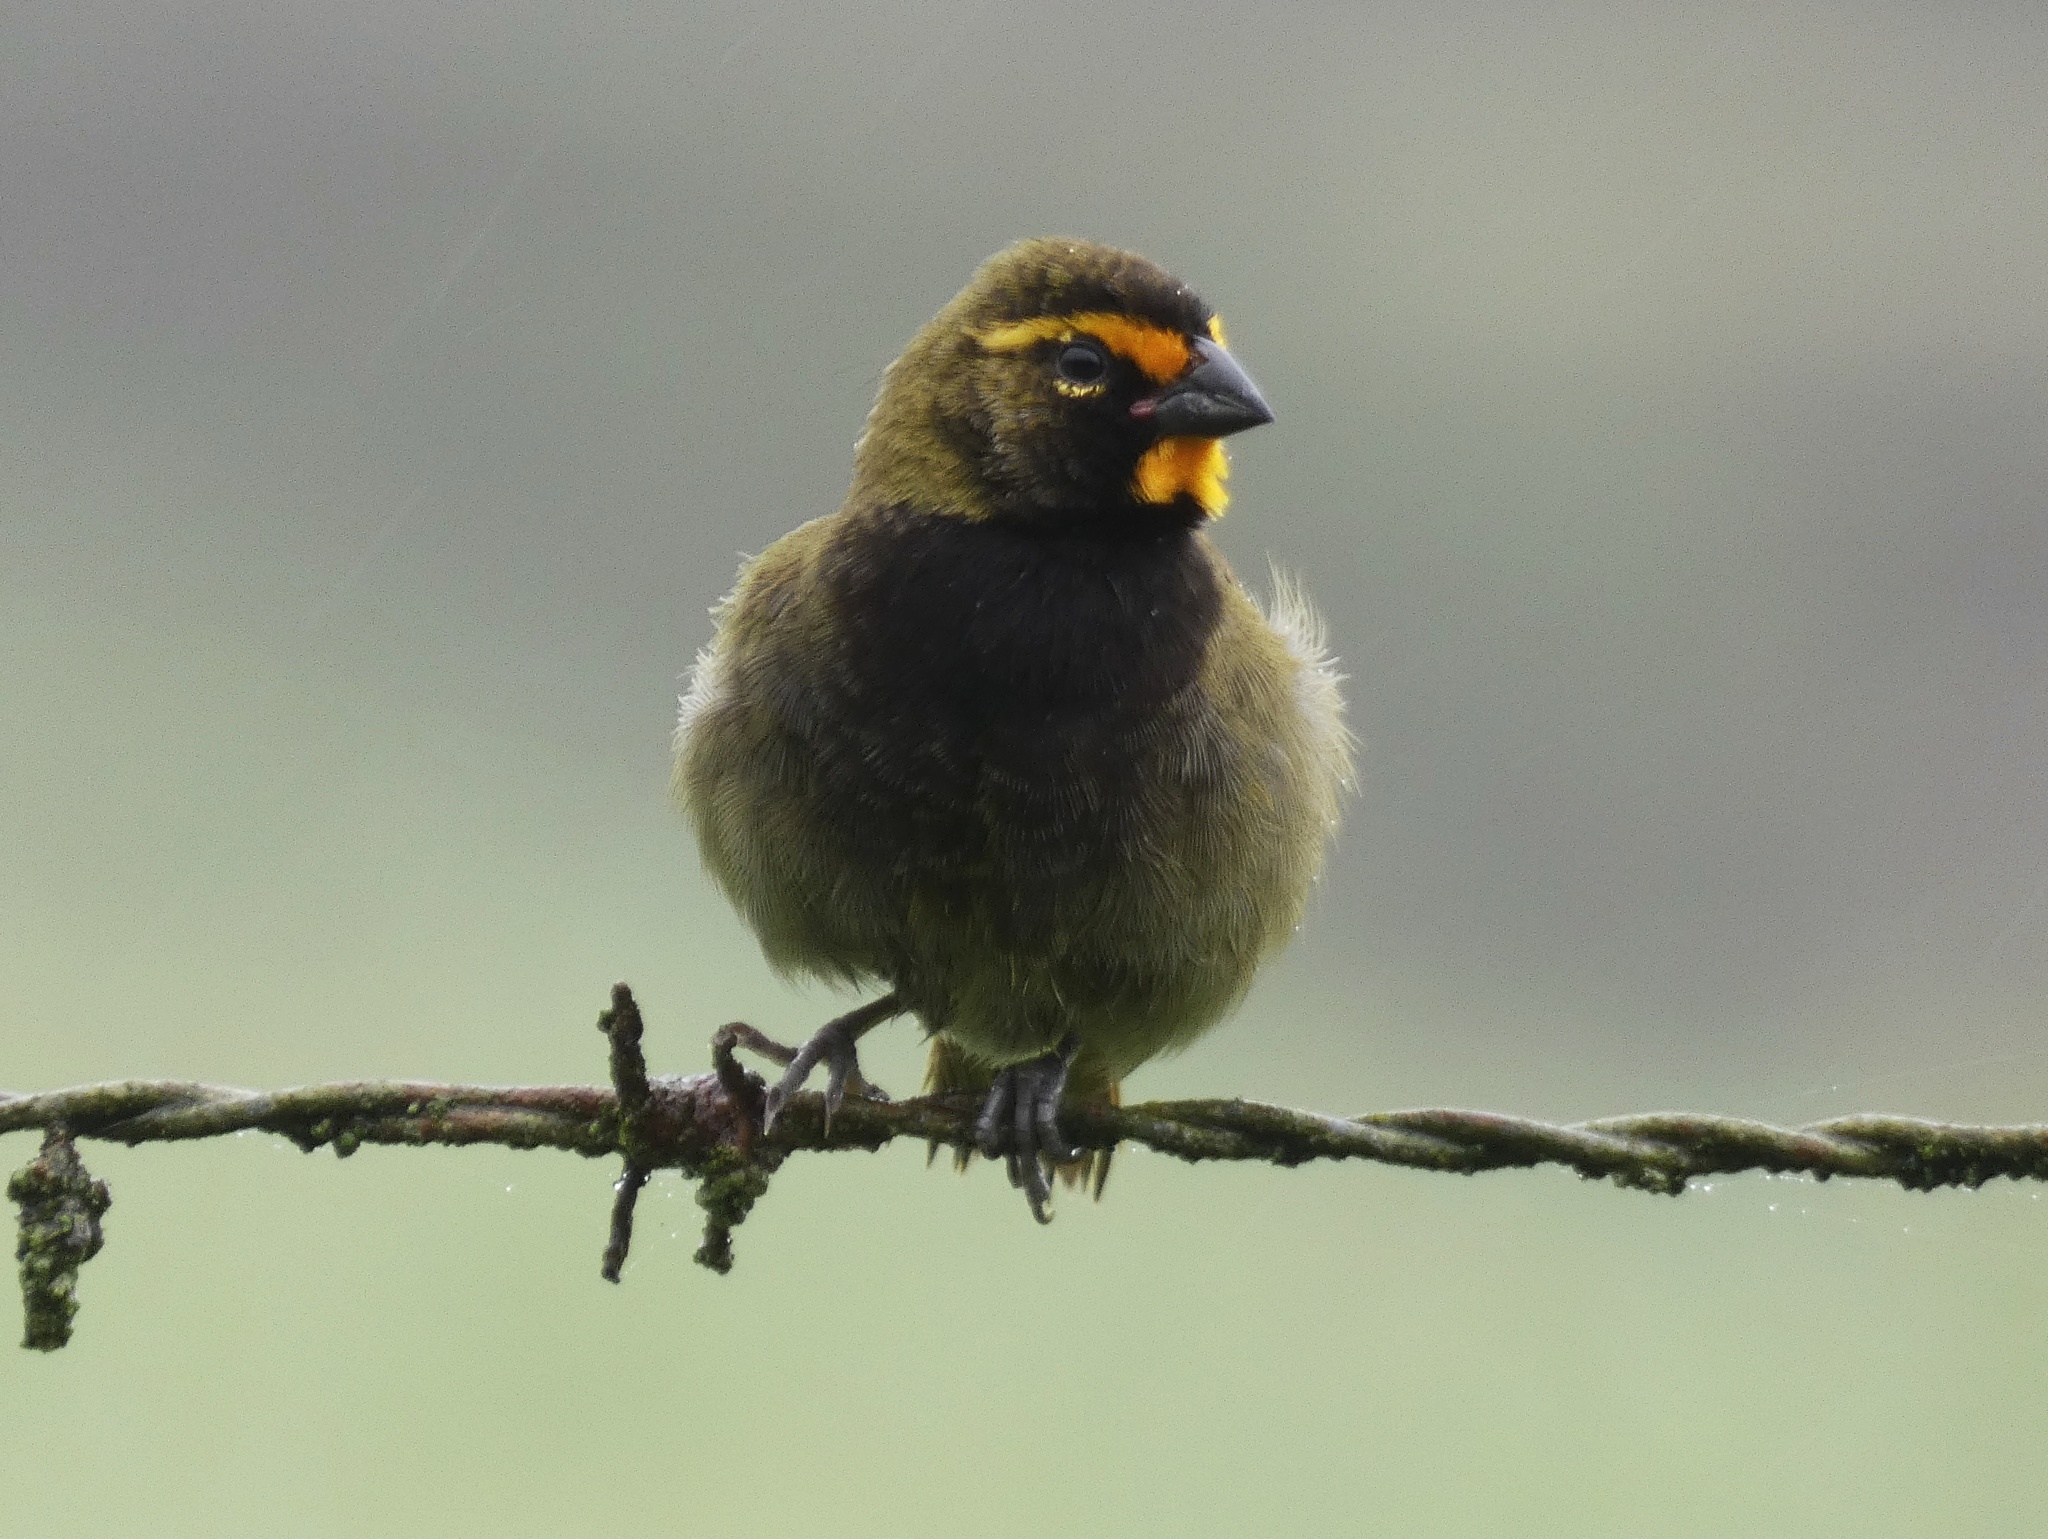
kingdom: Animalia
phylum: Chordata
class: Aves
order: Passeriformes
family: Thraupidae
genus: Tiaris
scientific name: Tiaris olivaceus
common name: Yellow-faced grassquit
